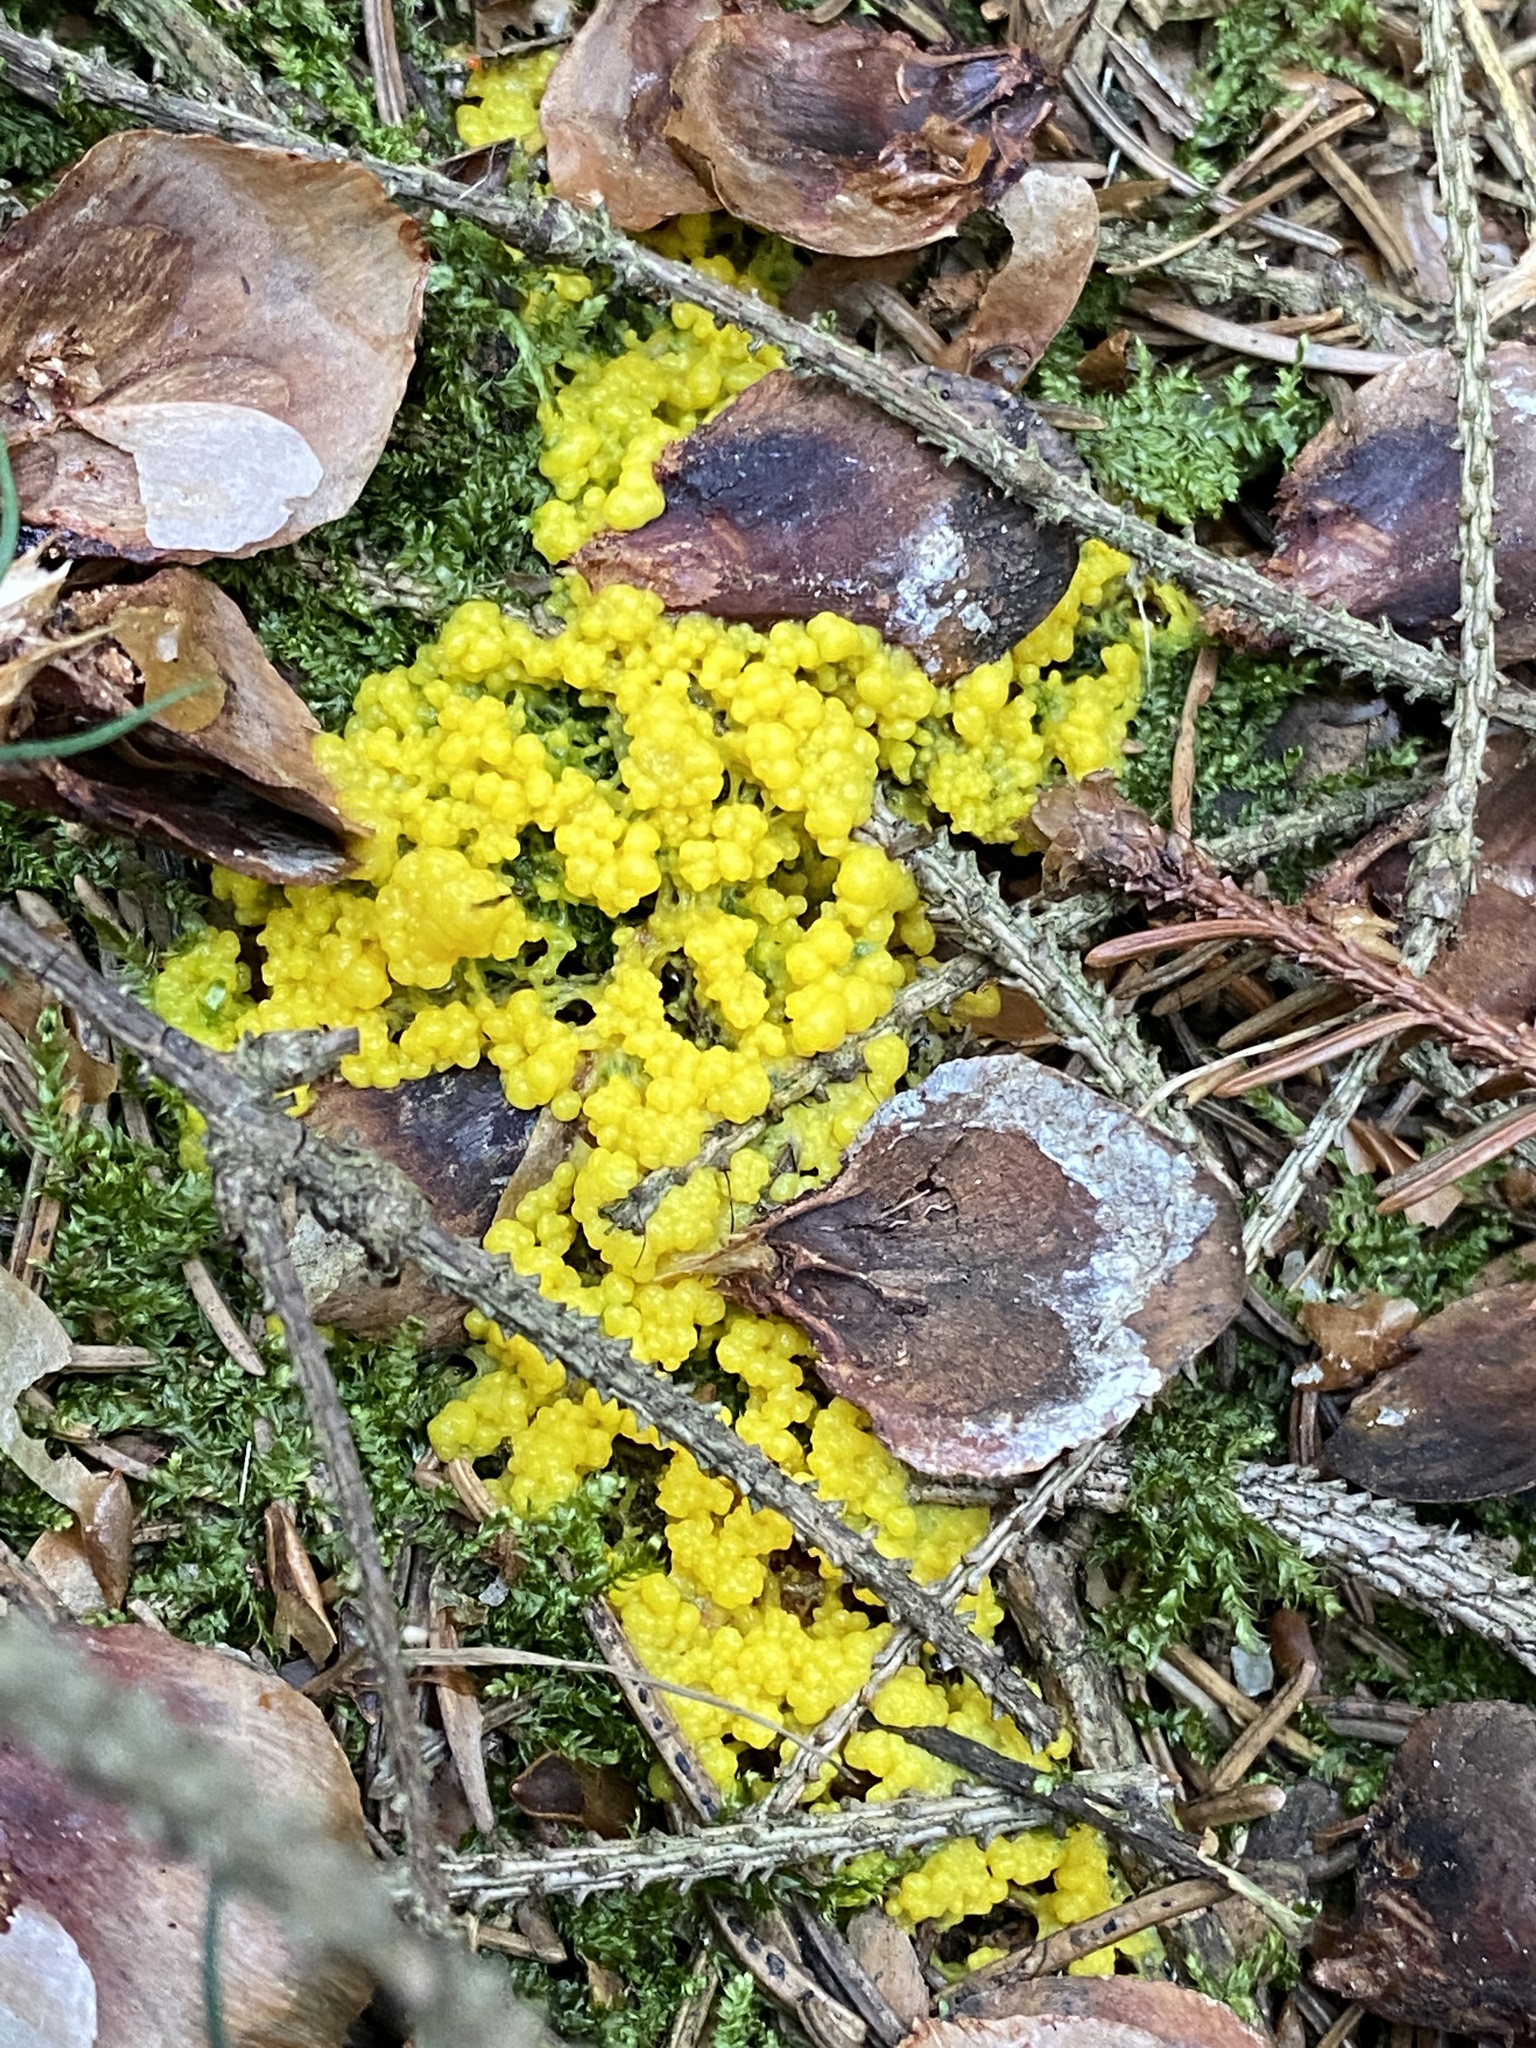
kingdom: Protozoa
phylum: Mycetozoa
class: Myxomycetes
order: Physarales
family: Physaraceae
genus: Fuligo
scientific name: Fuligo septica
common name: Dog vomit slime mold
